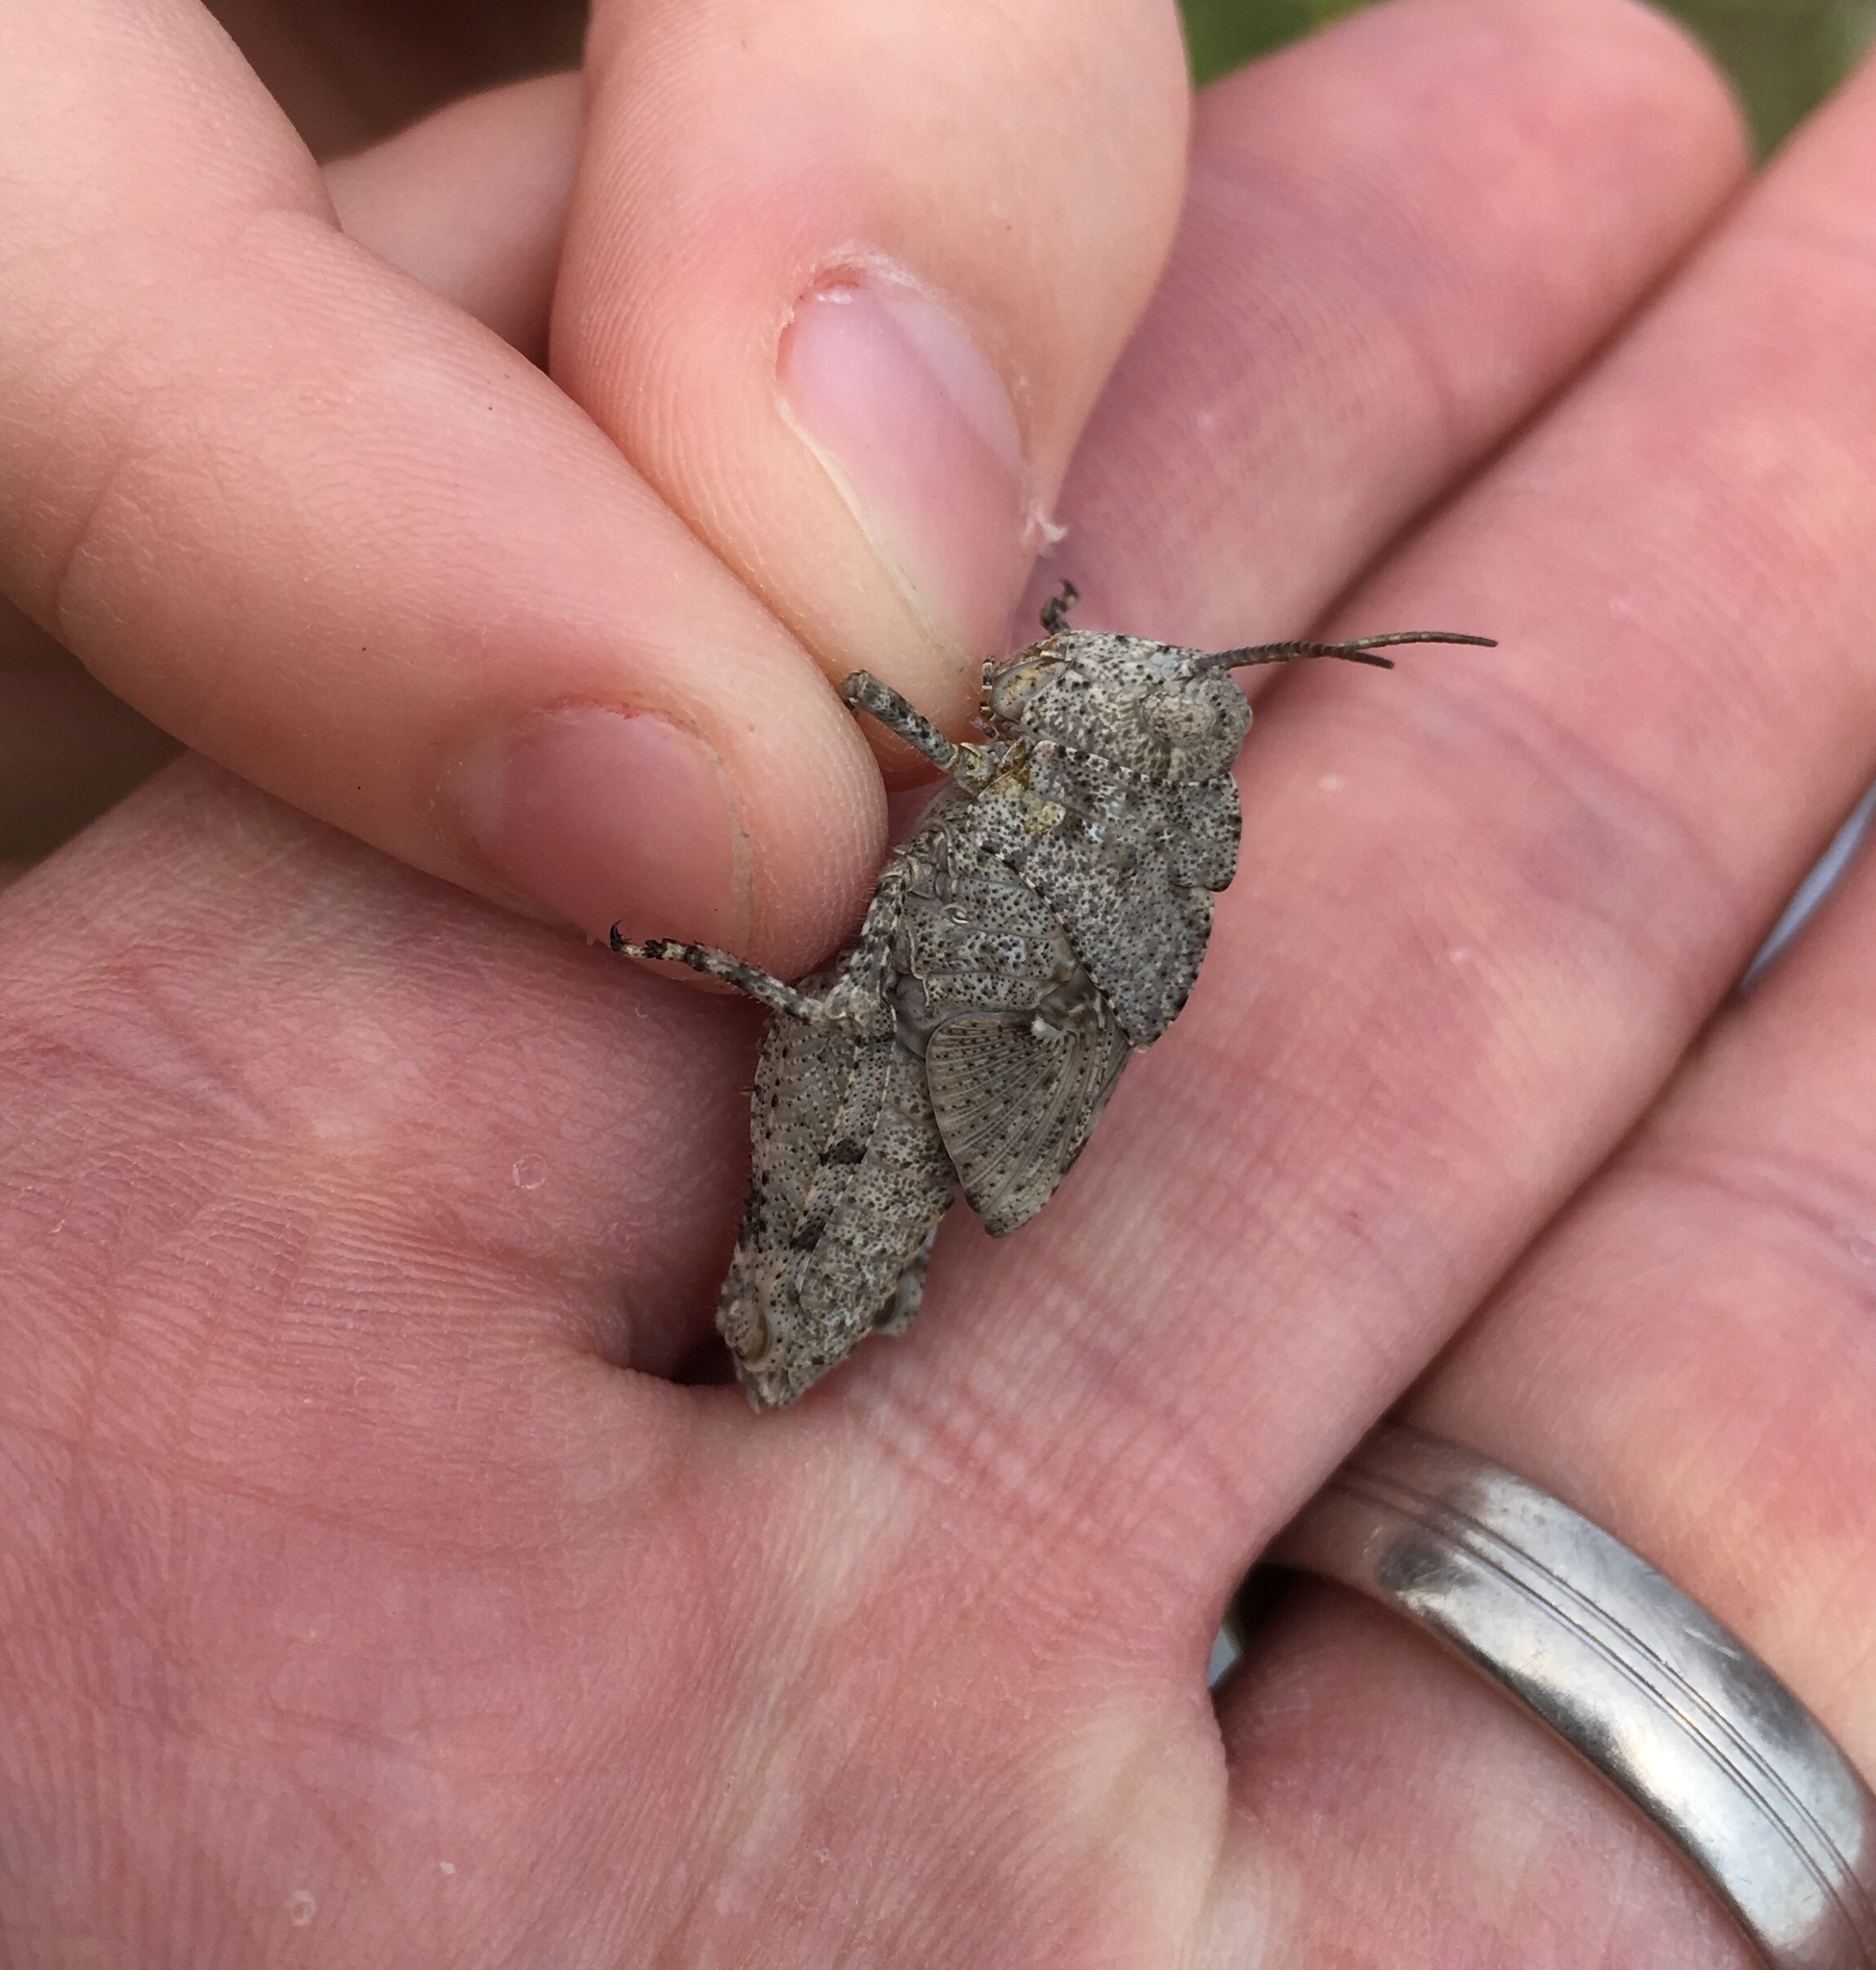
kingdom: Animalia
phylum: Arthropoda
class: Insecta
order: Orthoptera
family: Acrididae
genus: Dissosteira
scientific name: Dissosteira carolina
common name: Carolina grasshopper
